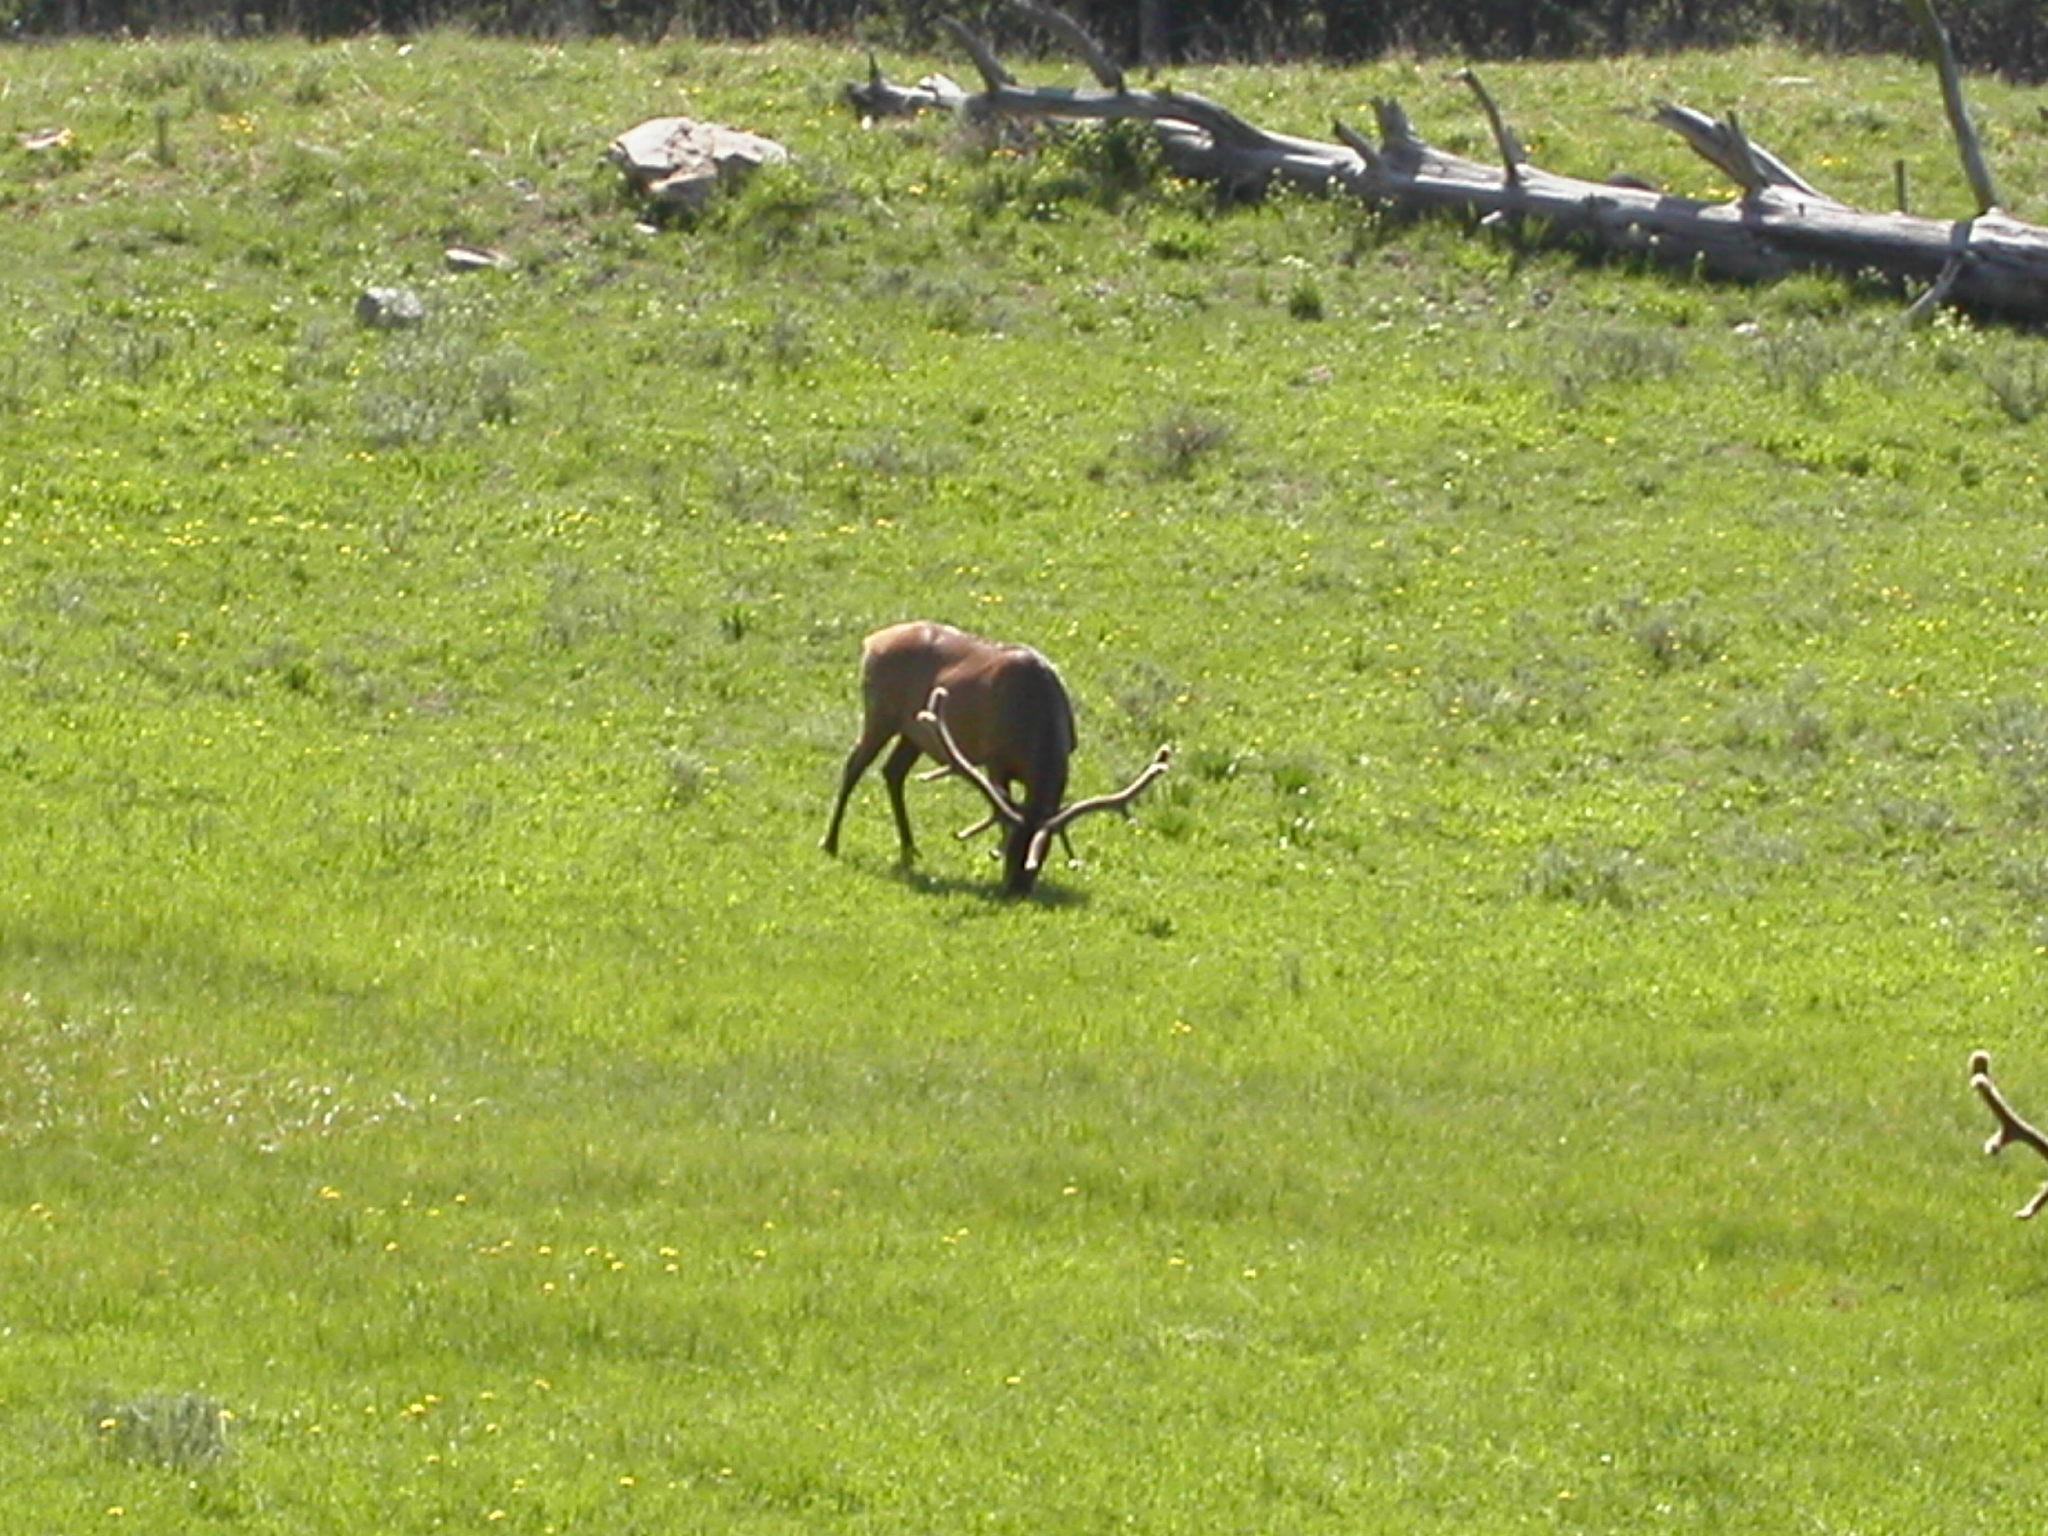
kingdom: Animalia
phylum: Chordata
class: Mammalia
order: Artiodactyla
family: Cervidae
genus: Cervus
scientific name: Cervus elaphus
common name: Red deer
